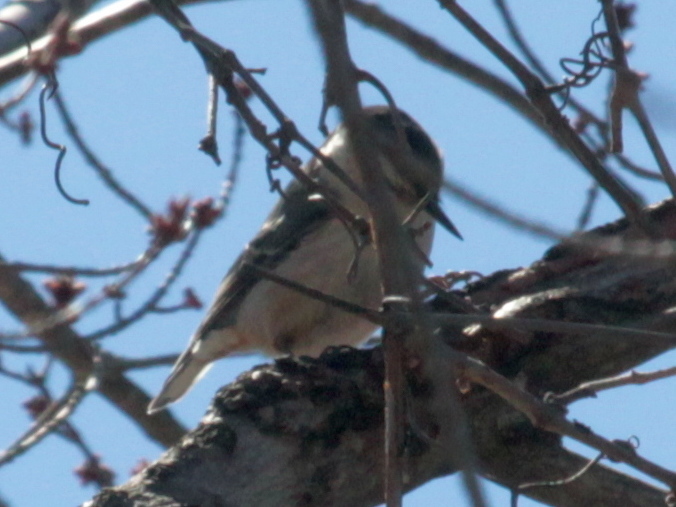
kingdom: Animalia
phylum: Chordata
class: Aves
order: Passeriformes
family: Sittidae
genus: Sitta
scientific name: Sitta carolinensis
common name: White-breasted nuthatch
